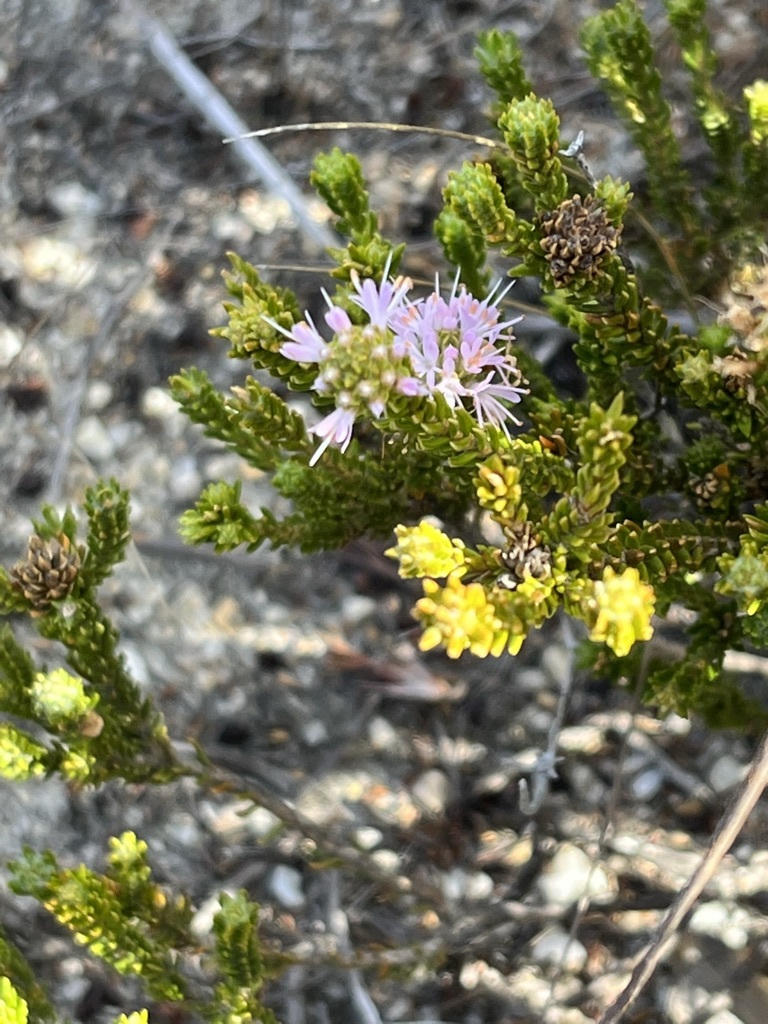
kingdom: Plantae
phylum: Tracheophyta
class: Magnoliopsida
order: Lamiales
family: Stilbaceae
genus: Stilbe
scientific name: Stilbe ericoides
